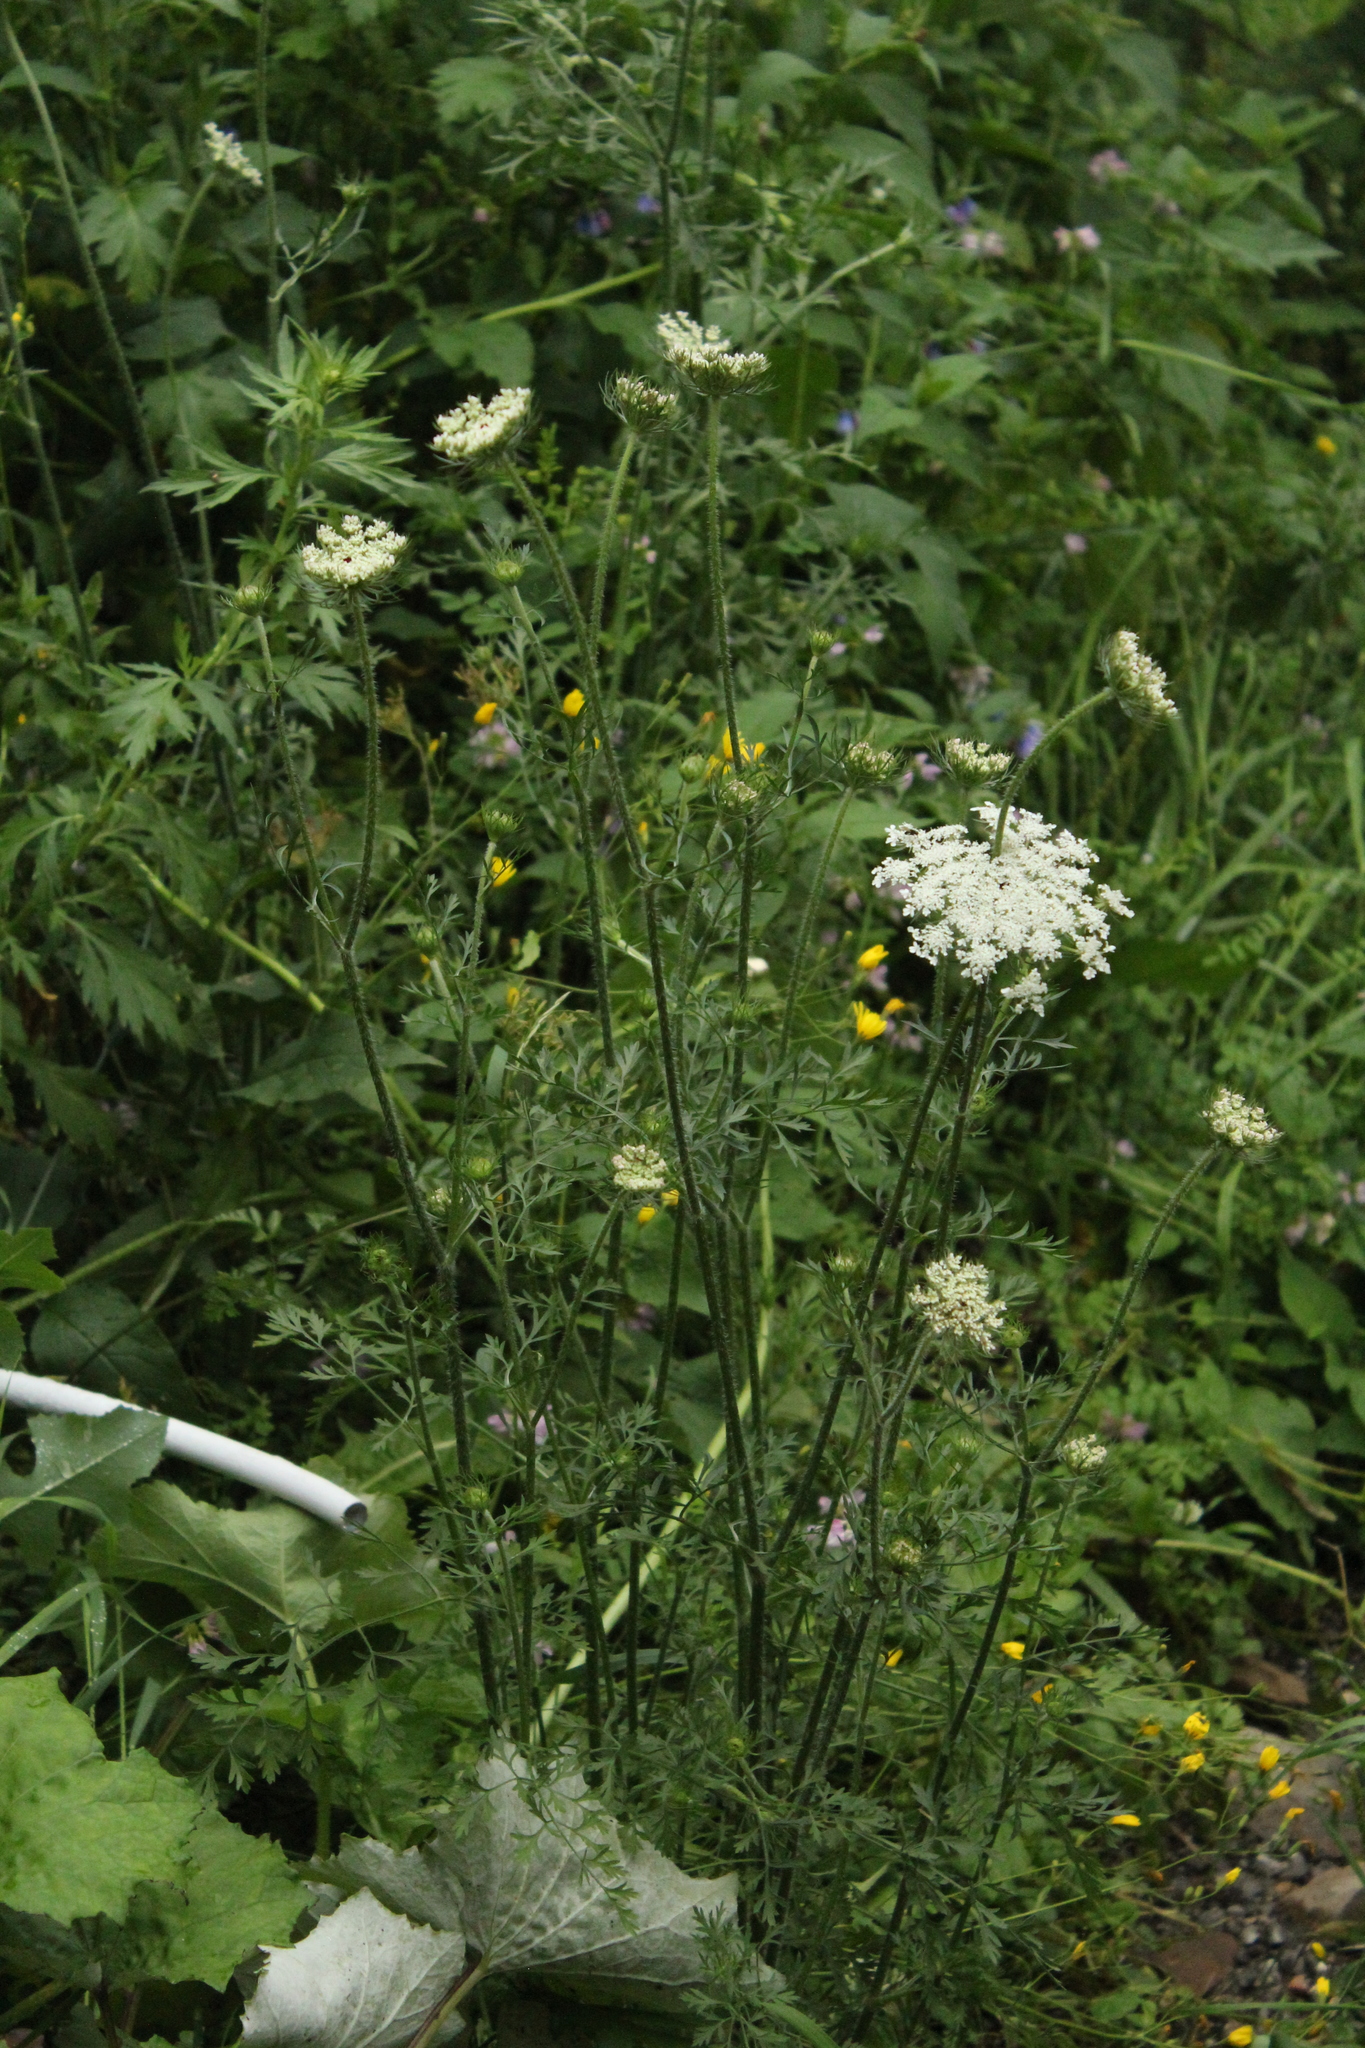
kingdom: Plantae
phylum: Tracheophyta
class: Magnoliopsida
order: Apiales
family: Apiaceae
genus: Daucus
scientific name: Daucus carota
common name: Wild carrot
